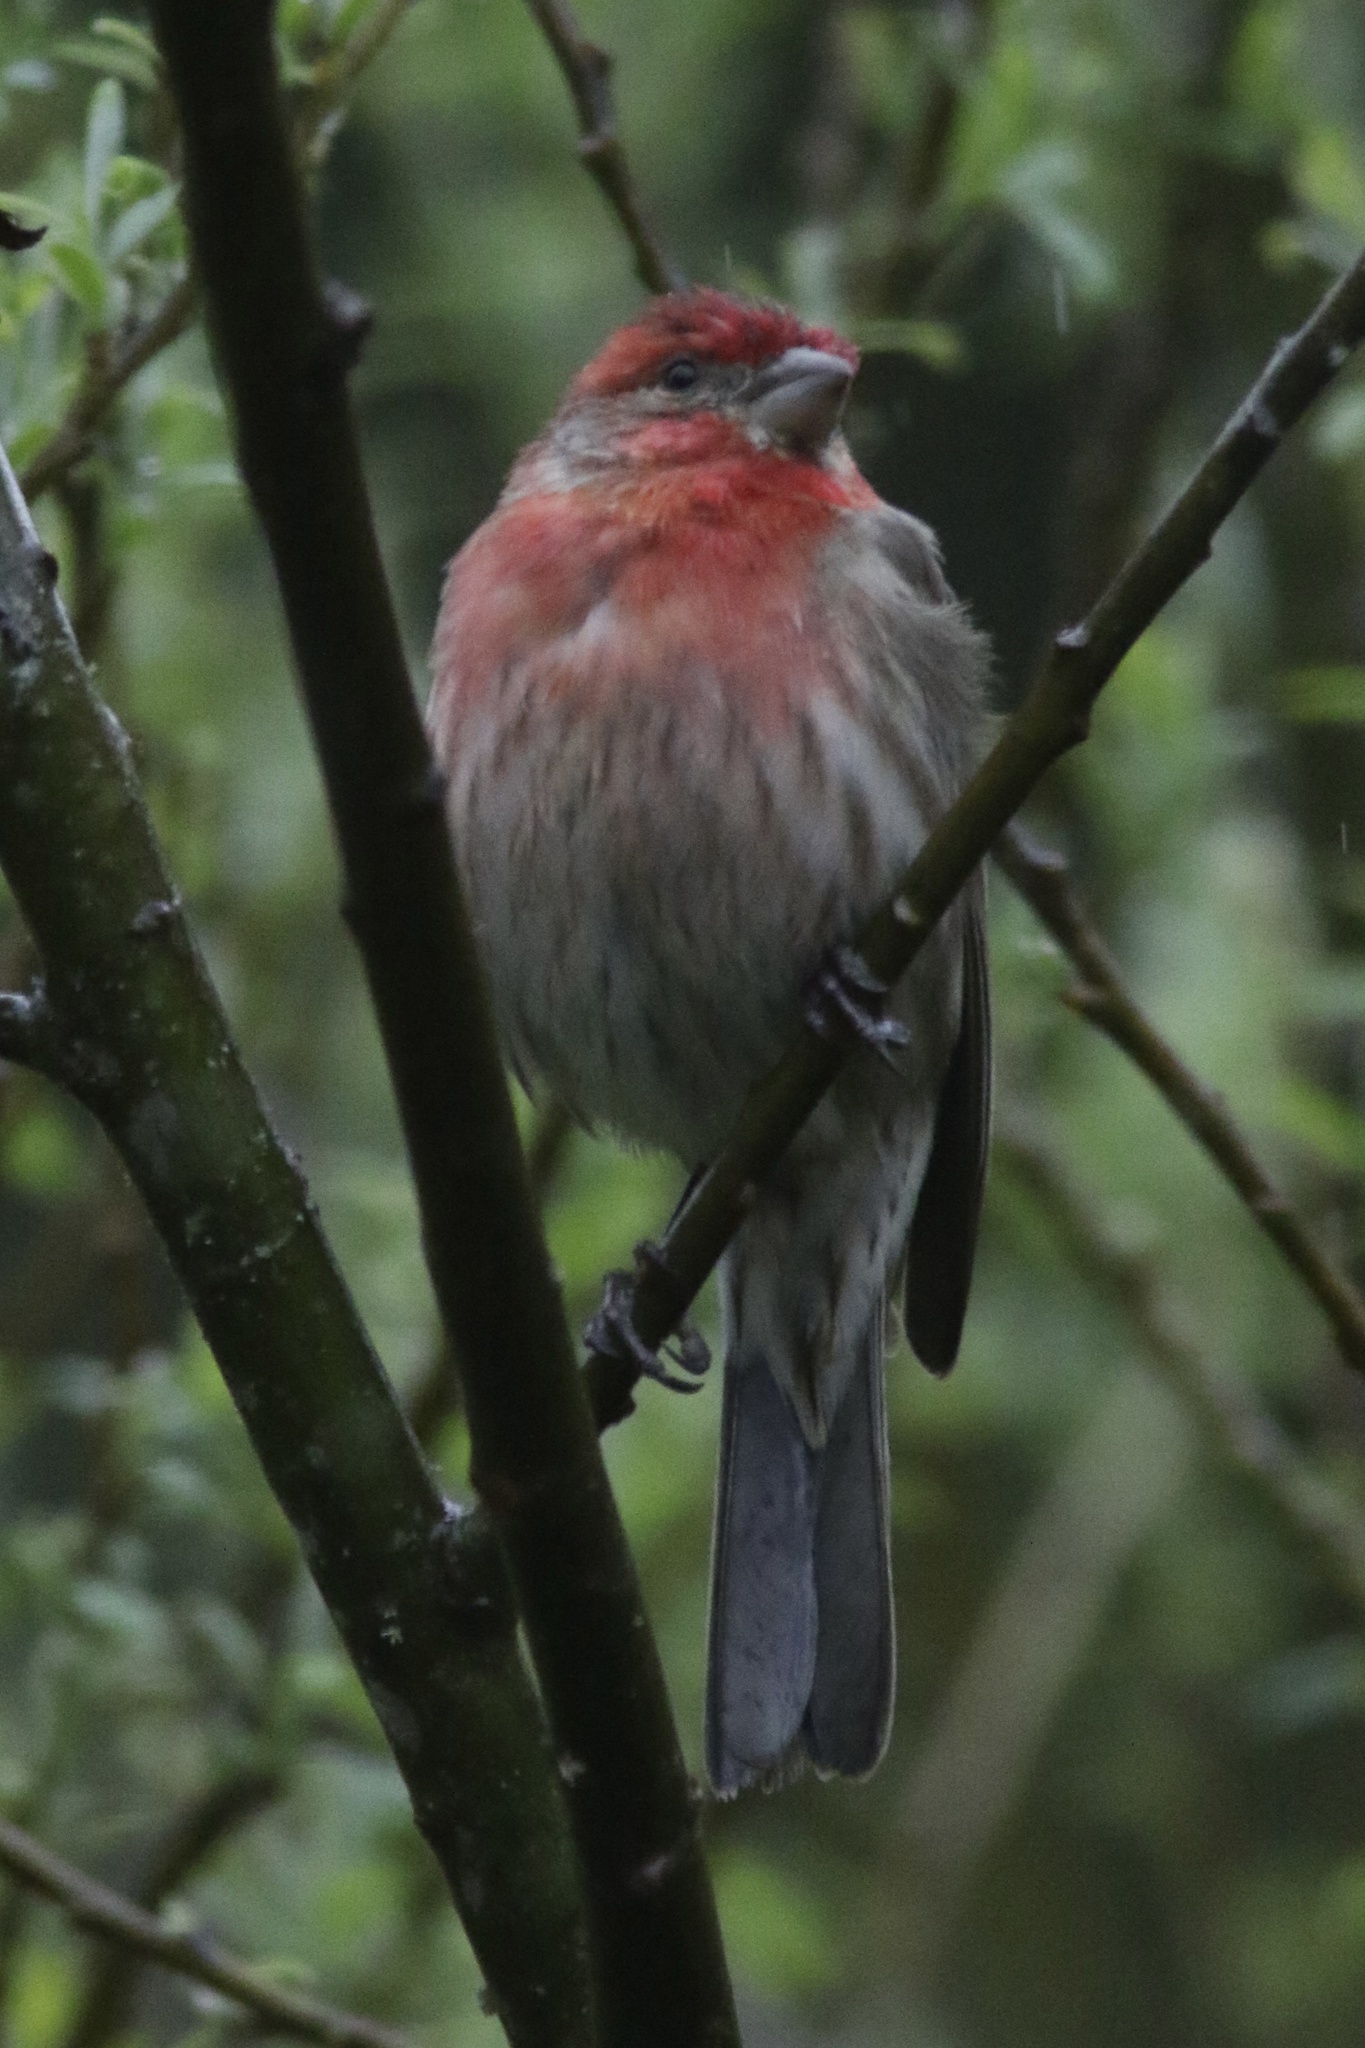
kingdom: Animalia
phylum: Chordata
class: Aves
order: Passeriformes
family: Fringillidae
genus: Haemorhous
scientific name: Haemorhous mexicanus
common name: House finch
